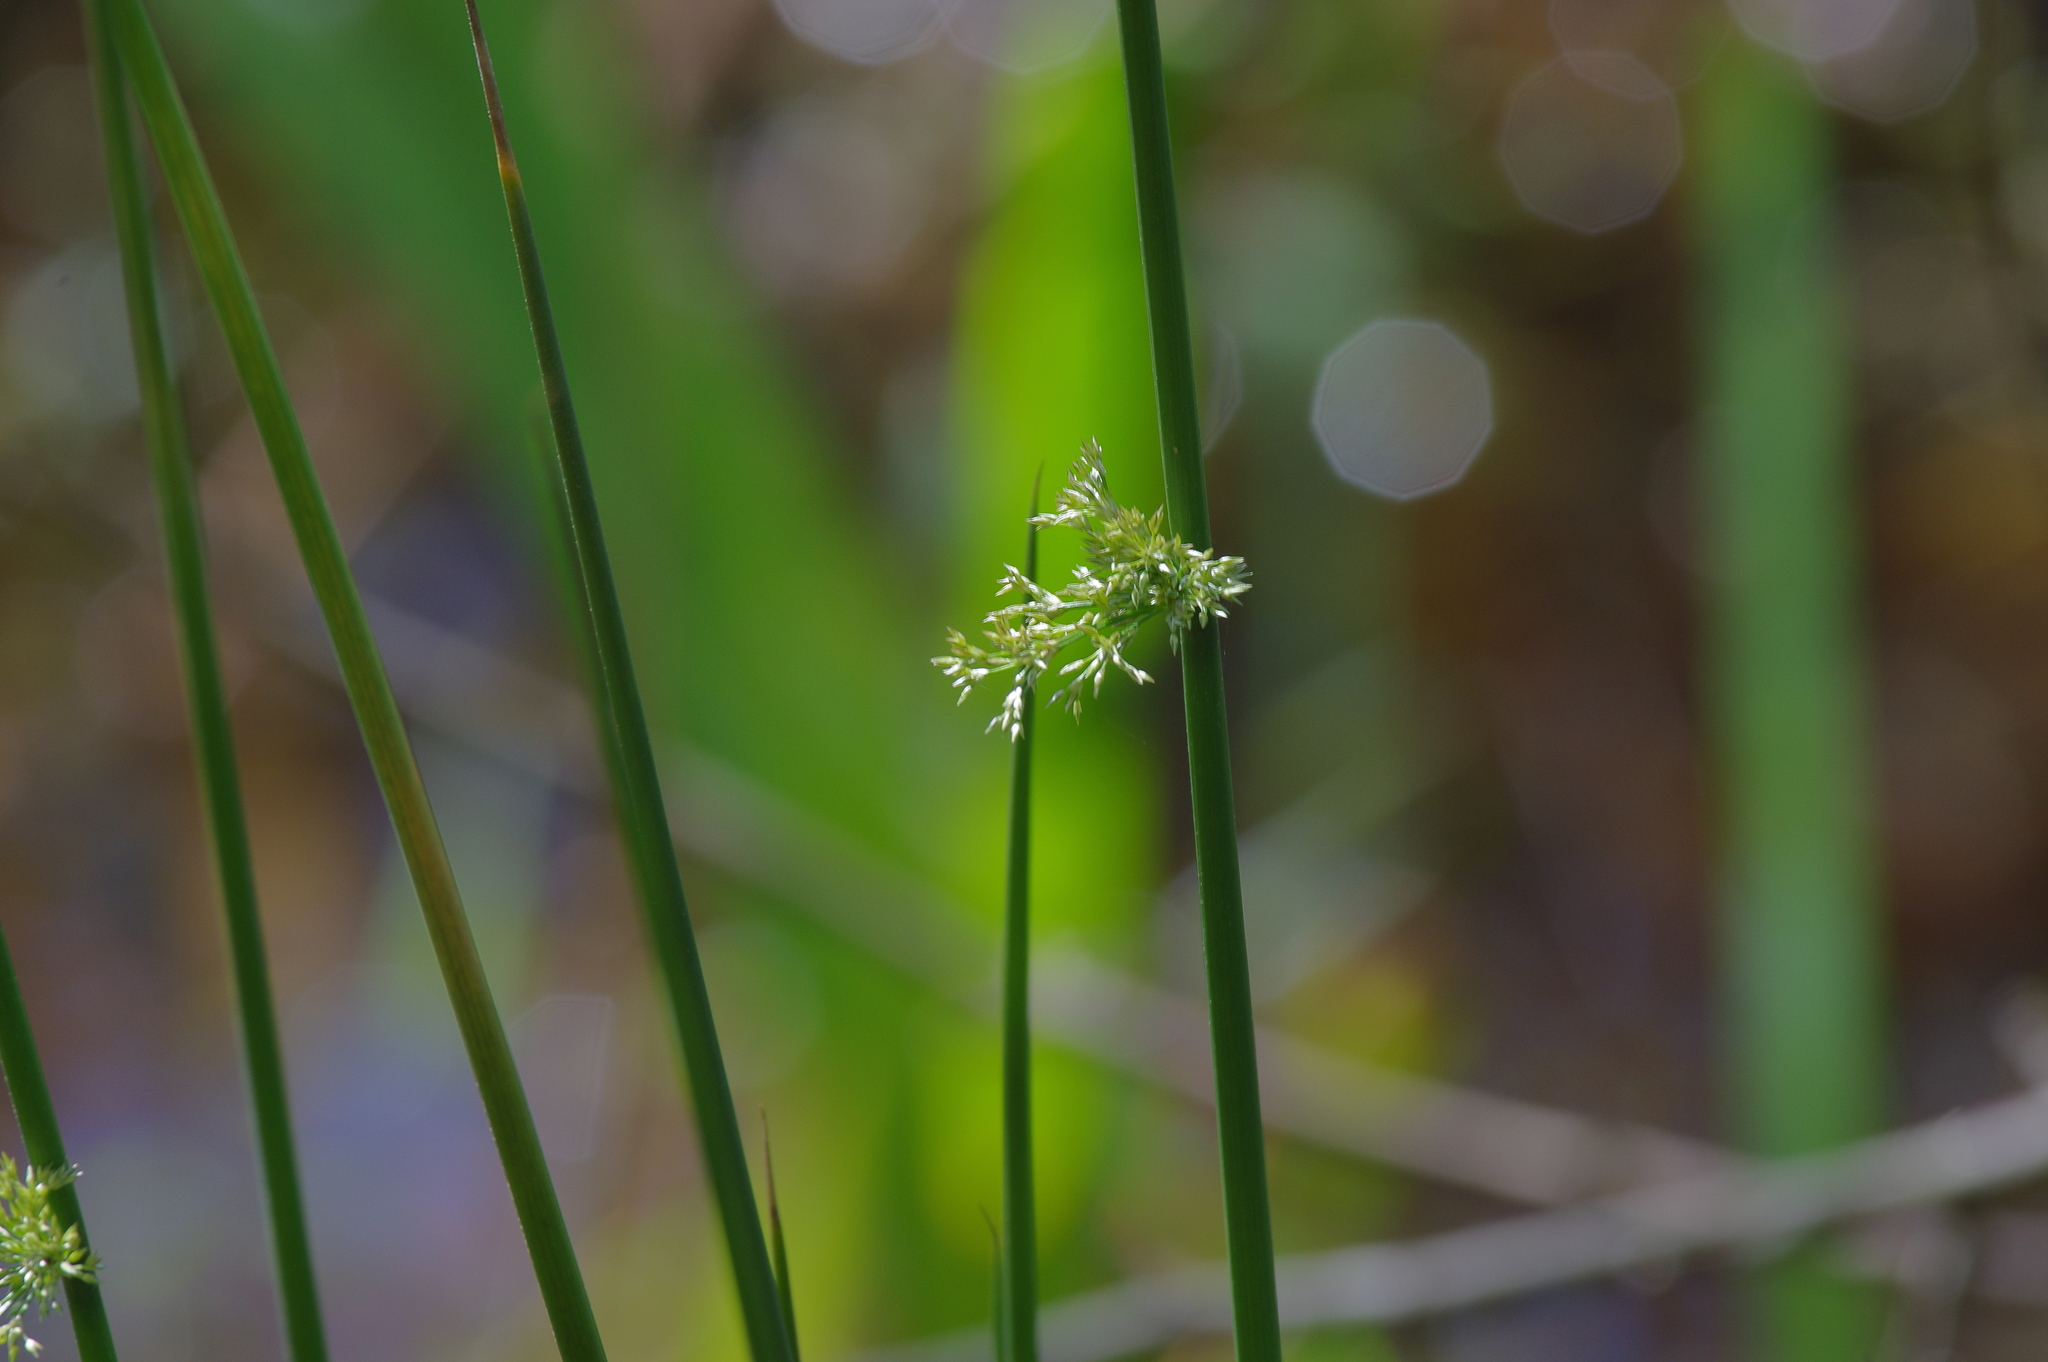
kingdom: Plantae
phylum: Tracheophyta
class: Liliopsida
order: Poales
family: Juncaceae
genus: Juncus
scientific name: Juncus effusus
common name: Soft rush
